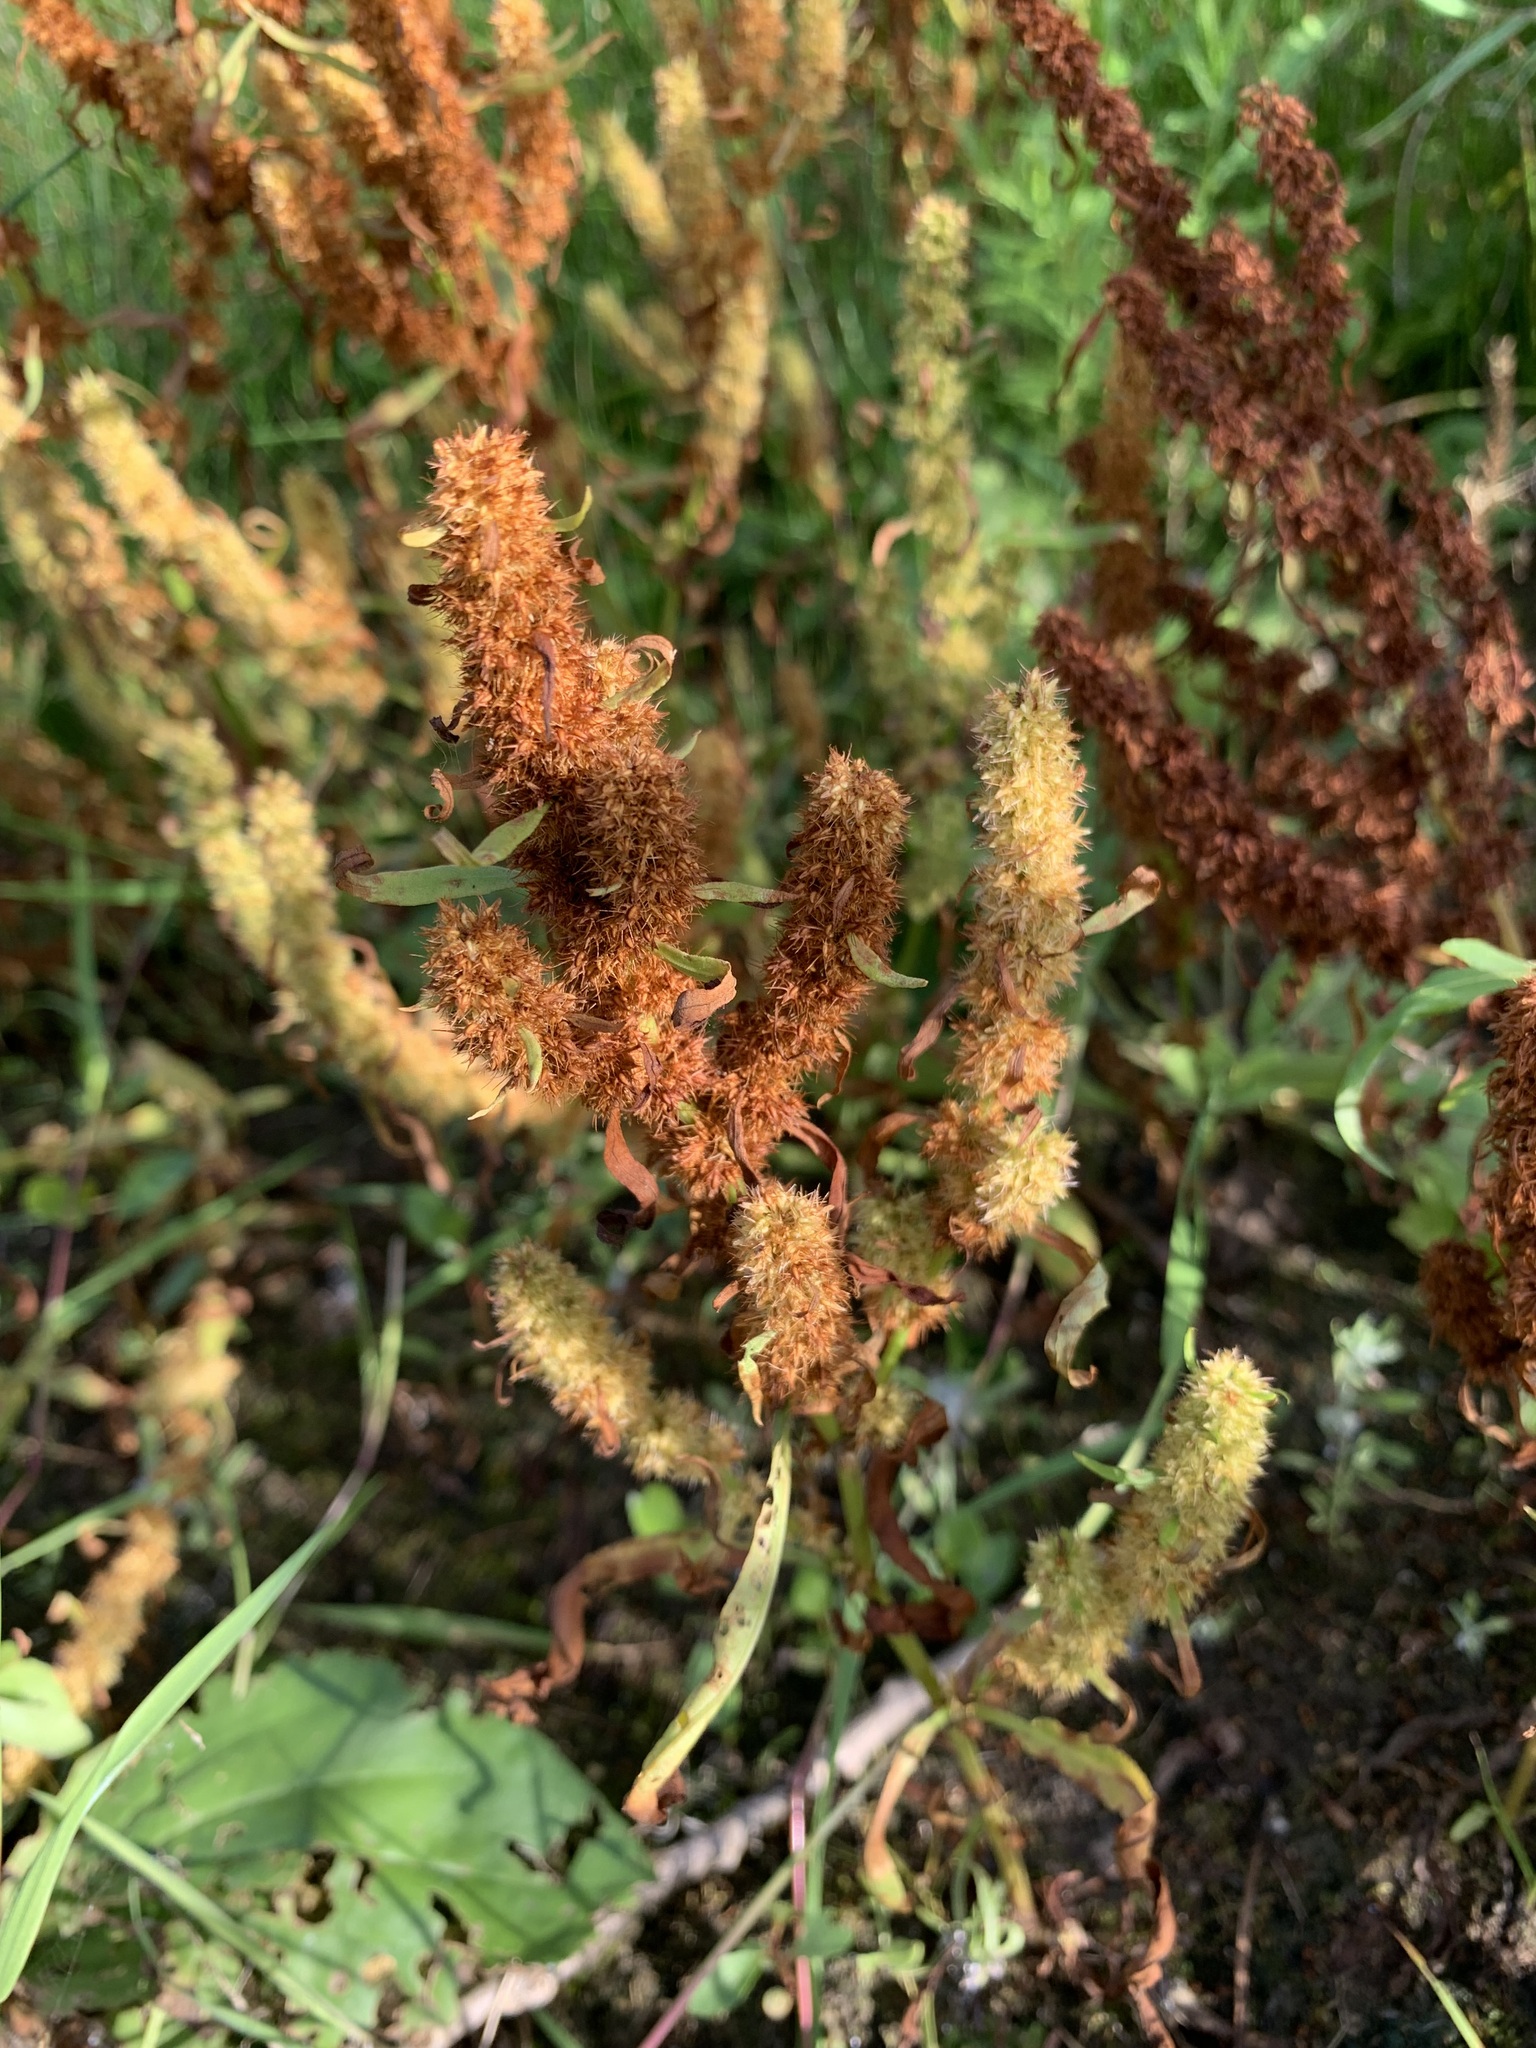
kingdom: Plantae
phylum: Tracheophyta
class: Magnoliopsida
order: Caryophyllales
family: Polygonaceae
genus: Rumex
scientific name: Rumex maritimus
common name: Golden dock
